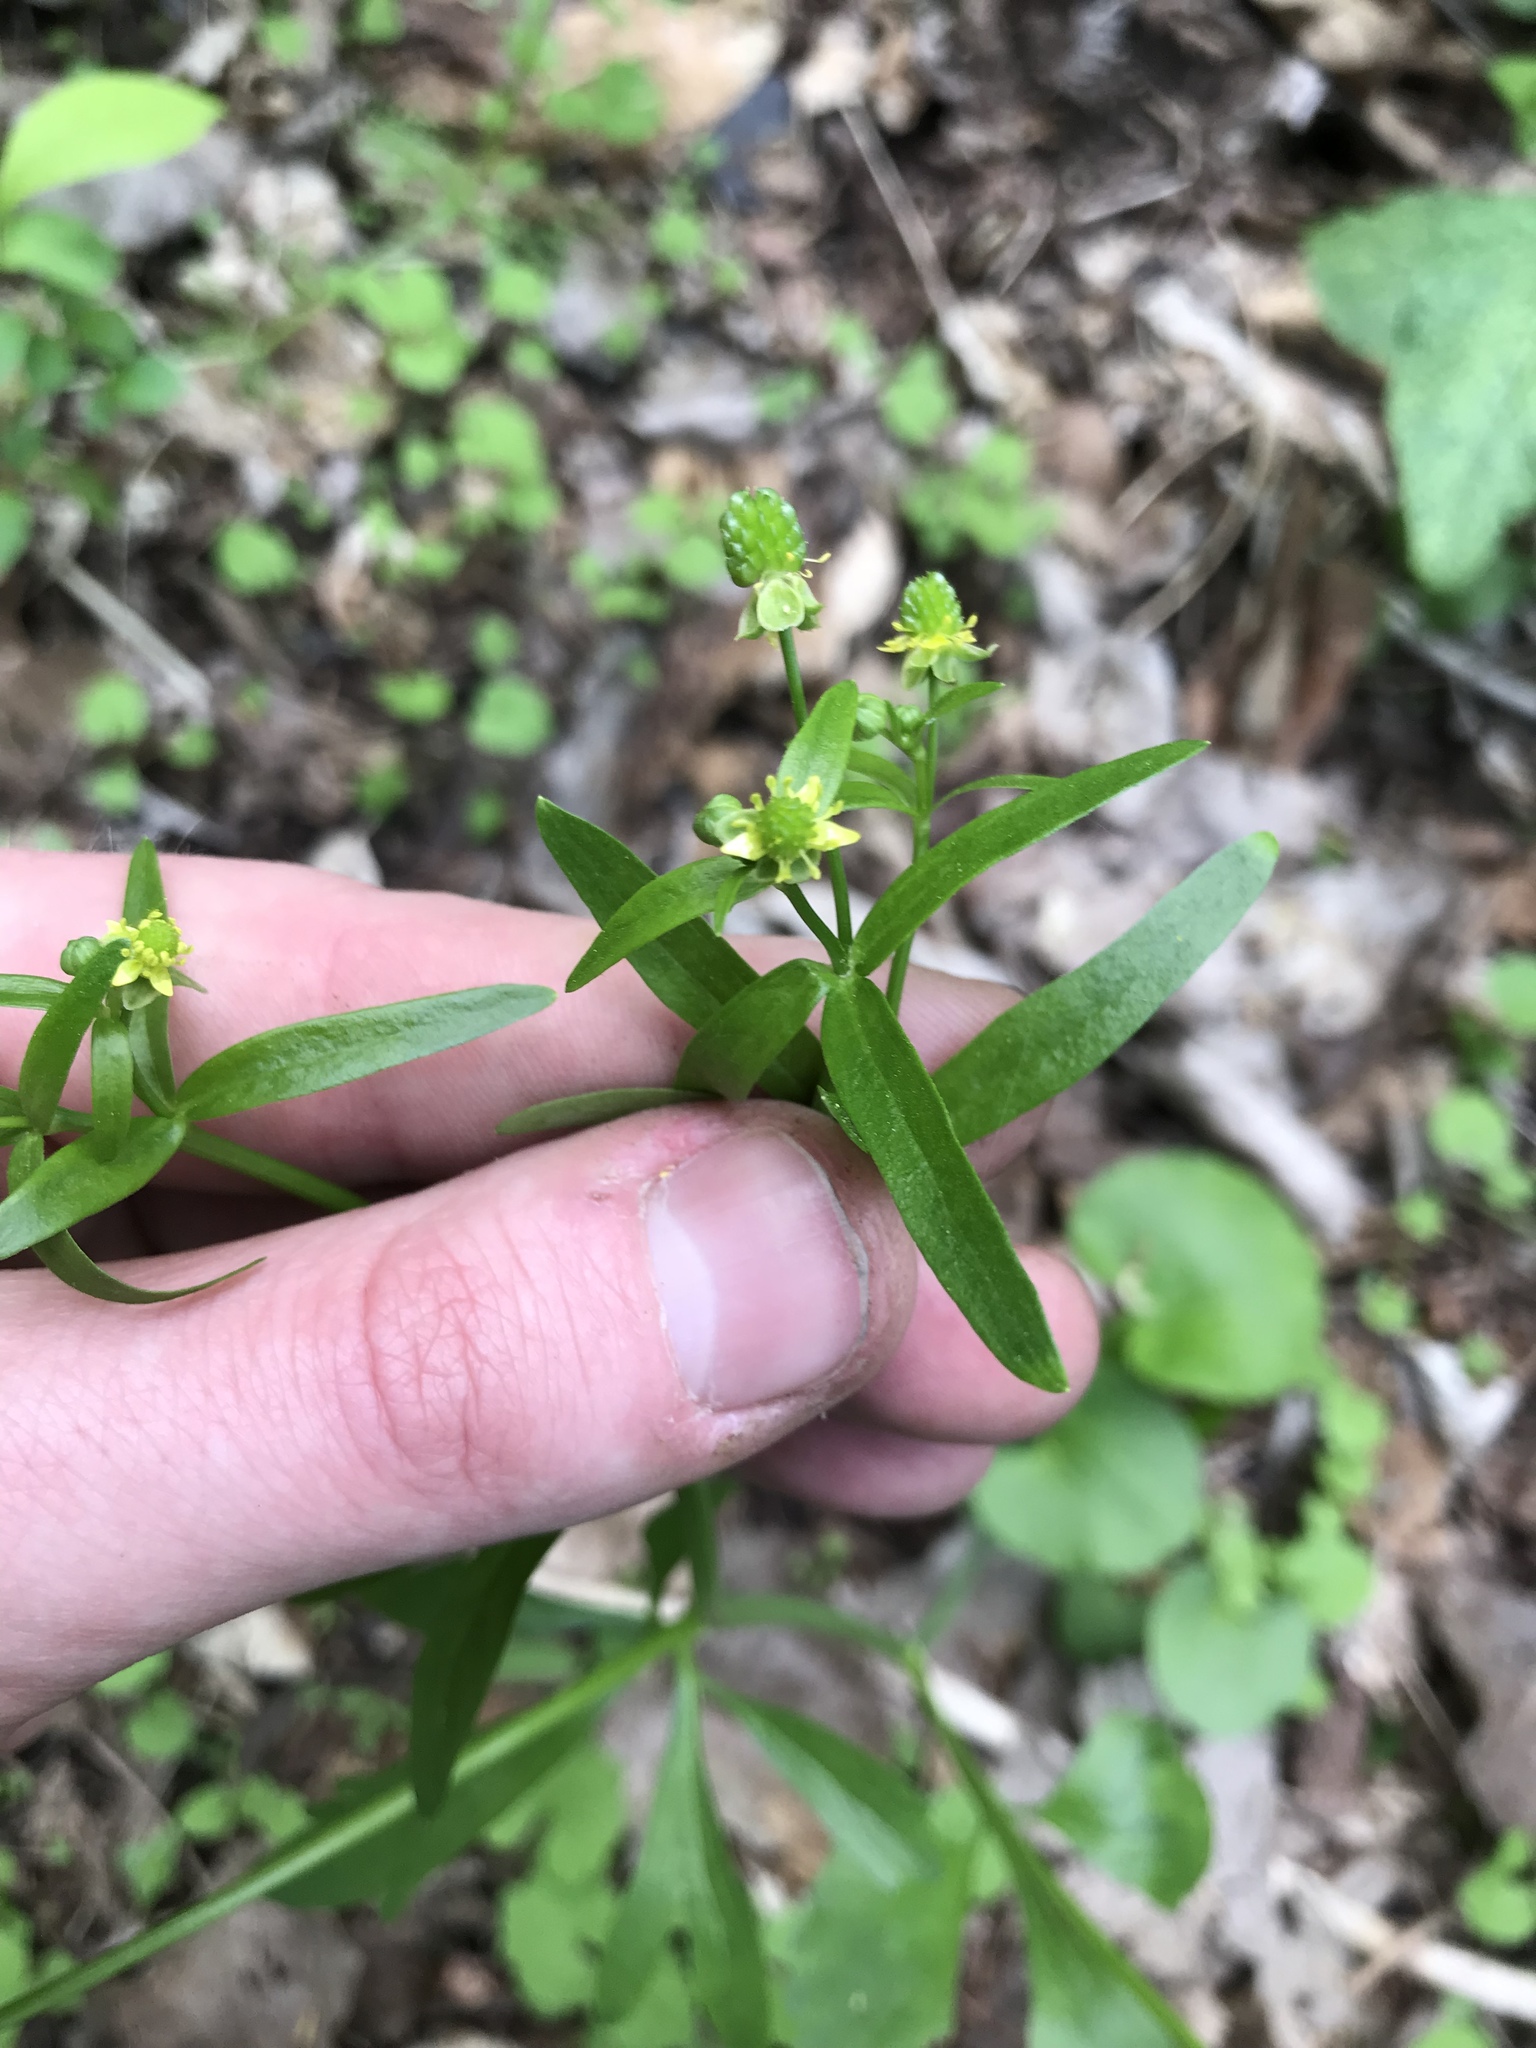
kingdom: Plantae
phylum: Tracheophyta
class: Magnoliopsida
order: Ranunculales
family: Ranunculaceae
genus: Ranunculus
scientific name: Ranunculus abortivus
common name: Early wood buttercup
